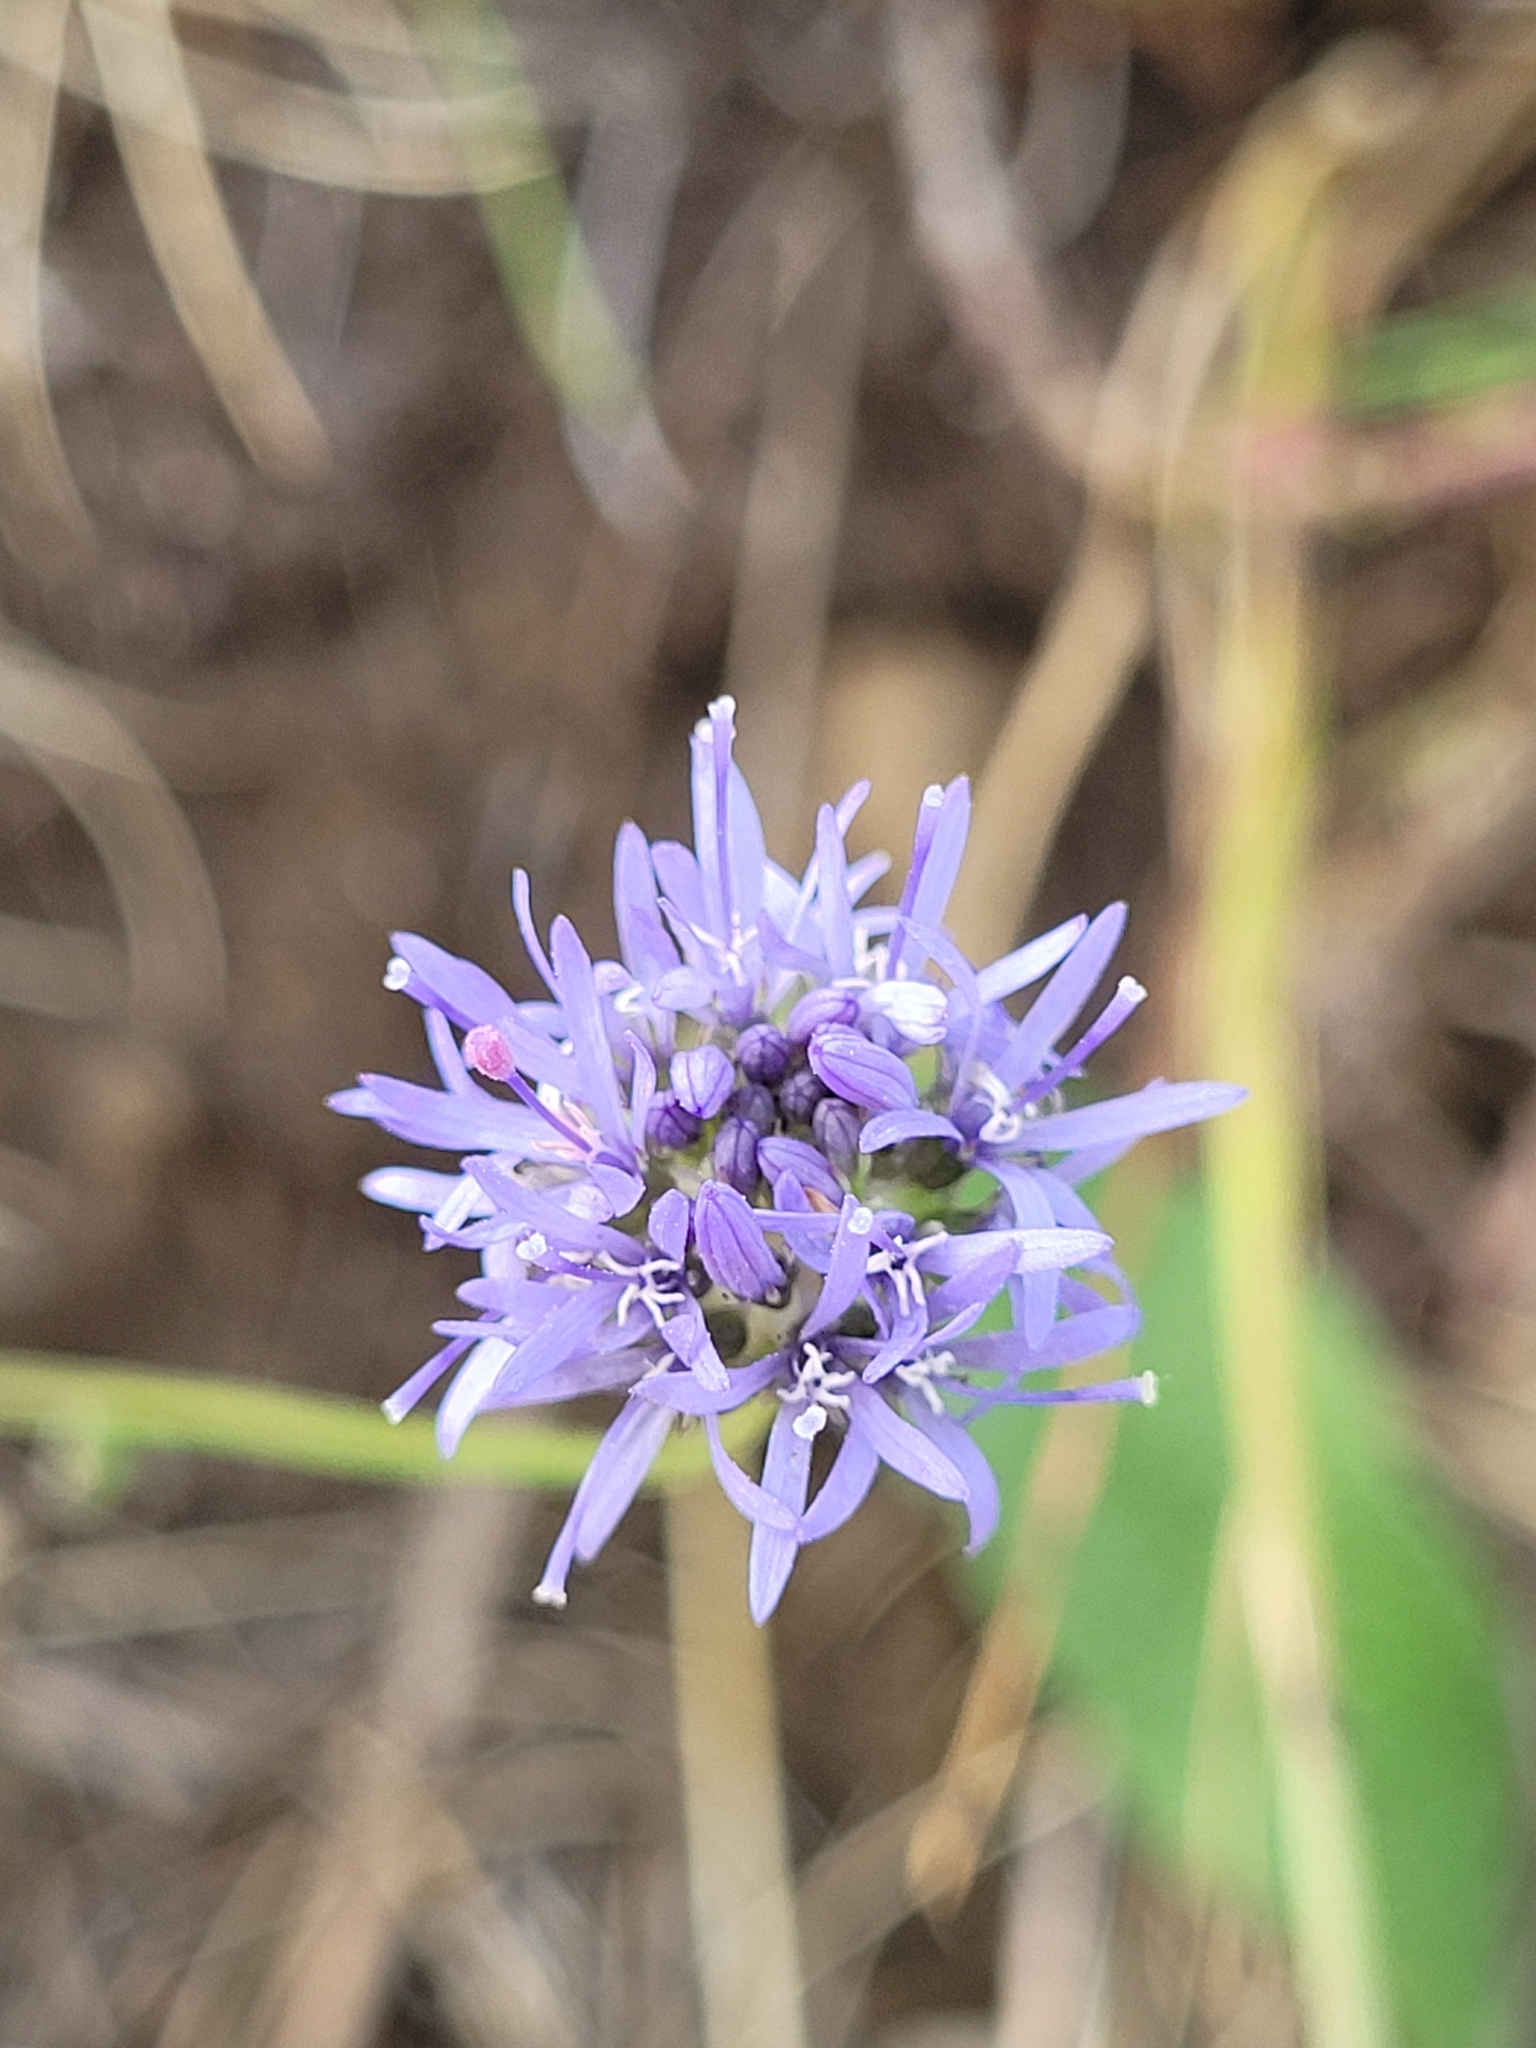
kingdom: Plantae
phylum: Tracheophyta
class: Magnoliopsida
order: Asterales
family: Campanulaceae
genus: Jasione
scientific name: Jasione montana
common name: Sheep's-bit
